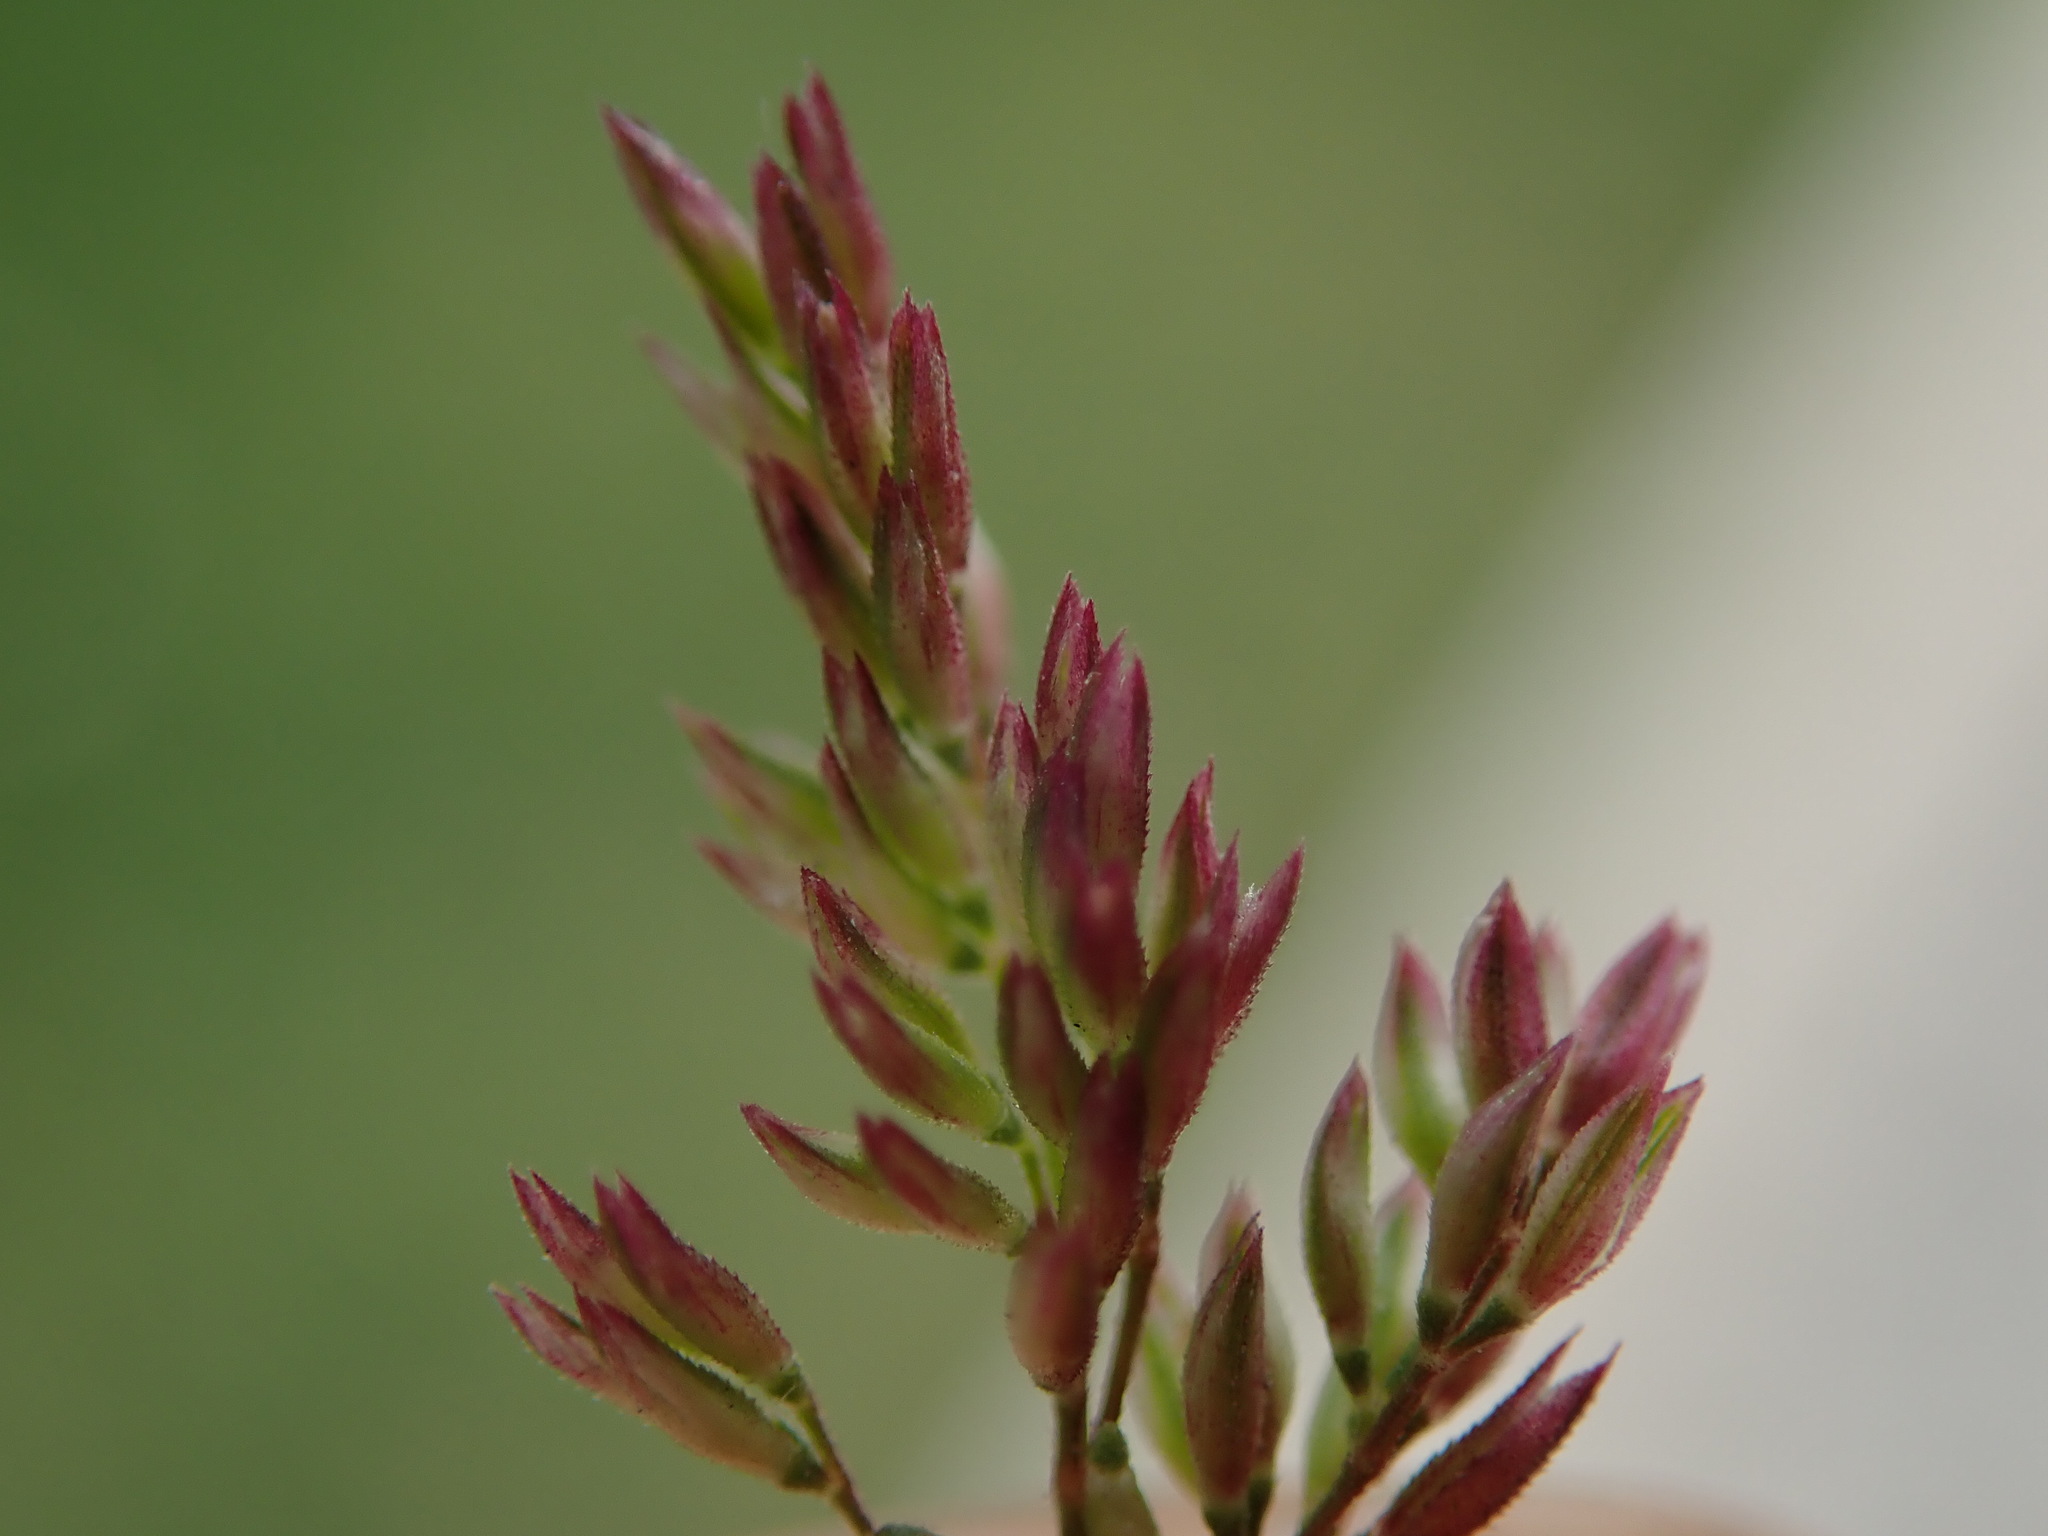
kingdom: Plantae
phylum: Tracheophyta
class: Liliopsida
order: Poales
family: Poaceae
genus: Polypogon
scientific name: Polypogon viridis
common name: Water bent
